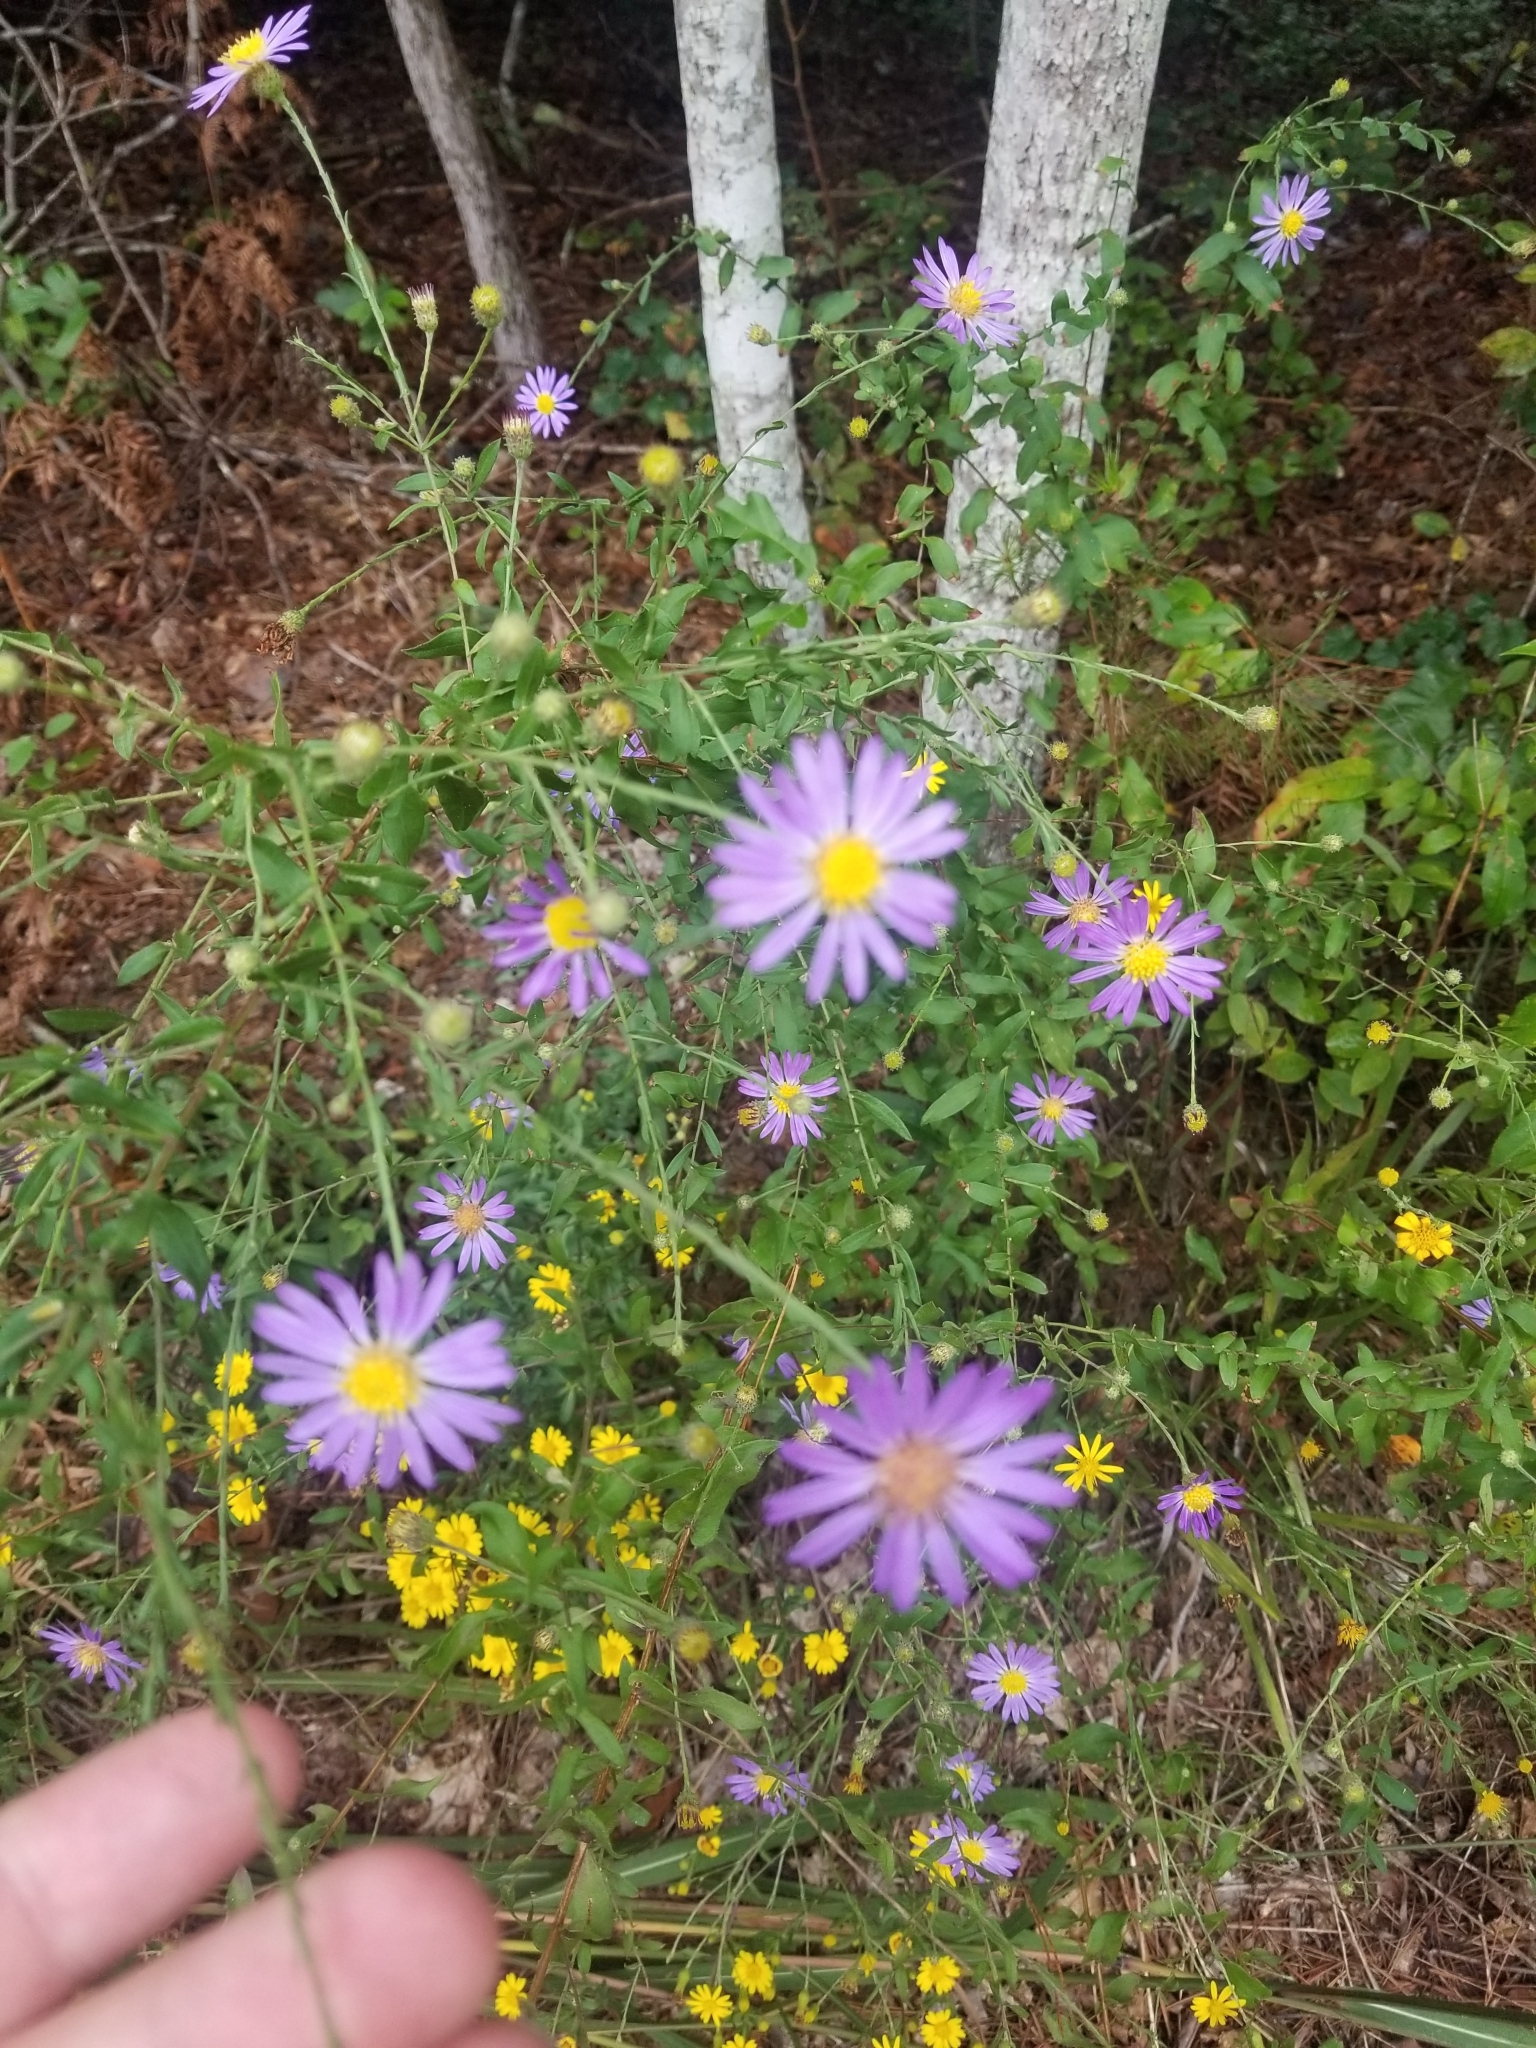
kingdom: Plantae
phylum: Tracheophyta
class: Magnoliopsida
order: Asterales
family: Asteraceae
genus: Symphyotrichum
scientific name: Symphyotrichum patens
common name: Late purple aster
